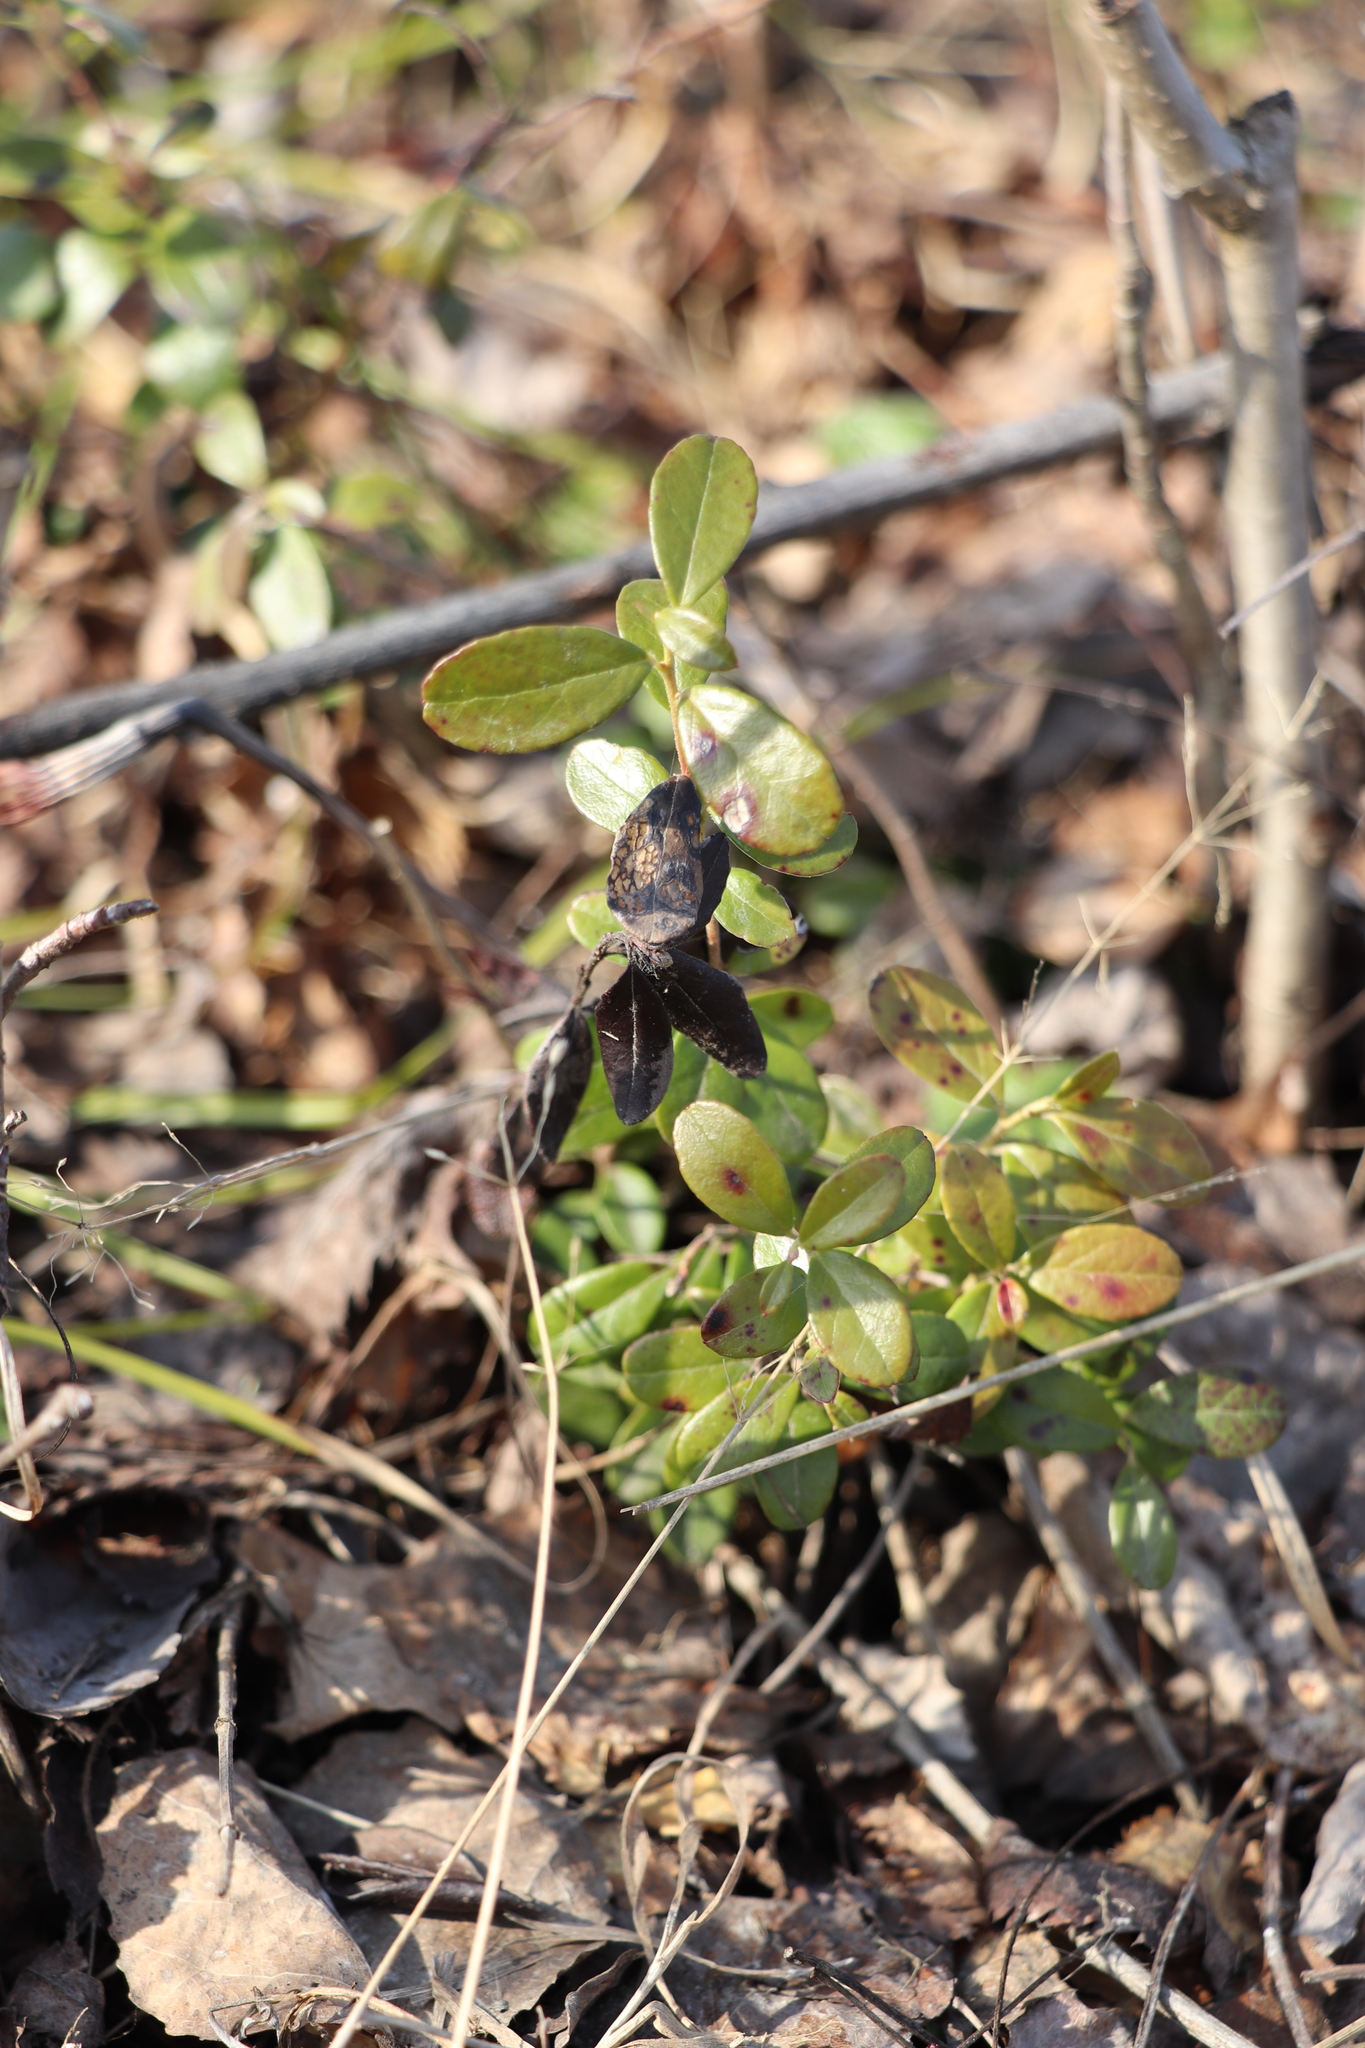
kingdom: Plantae
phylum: Tracheophyta
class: Magnoliopsida
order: Ericales
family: Ericaceae
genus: Vaccinium
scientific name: Vaccinium vitis-idaea
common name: Cowberry
